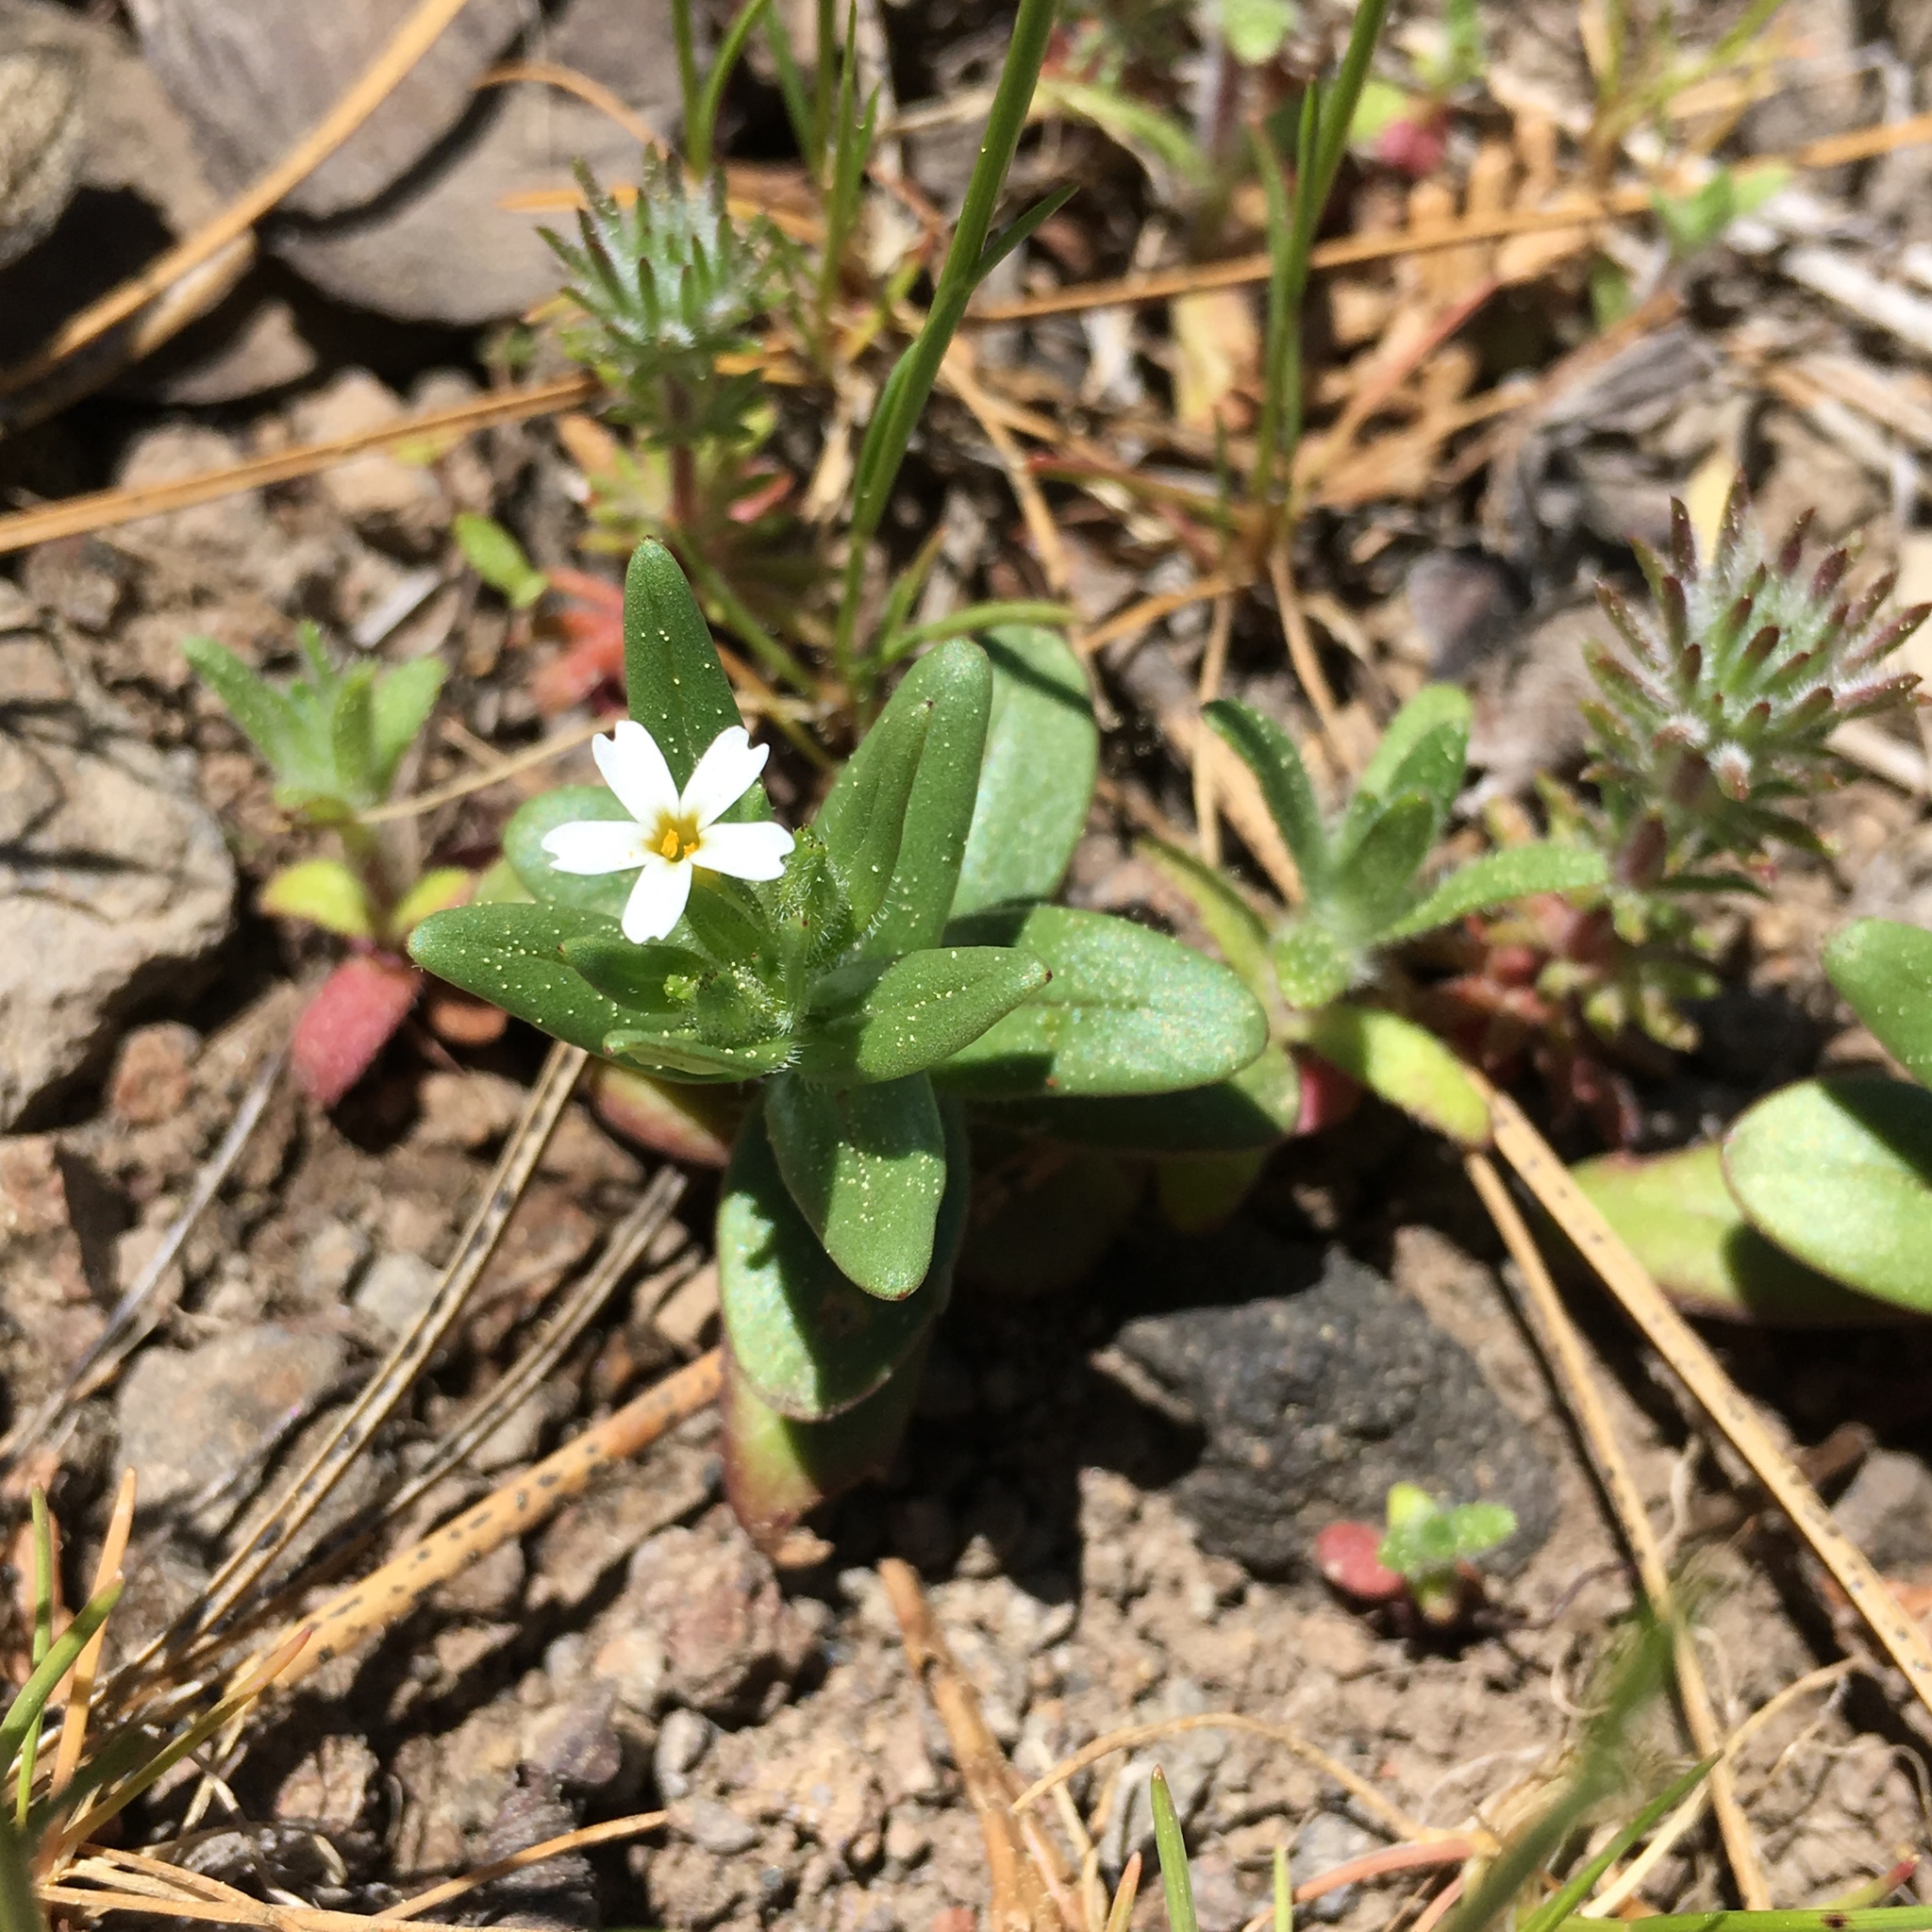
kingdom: Plantae
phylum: Tracheophyta
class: Magnoliopsida
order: Ericales
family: Polemoniaceae
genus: Phlox
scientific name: Phlox gracilis
